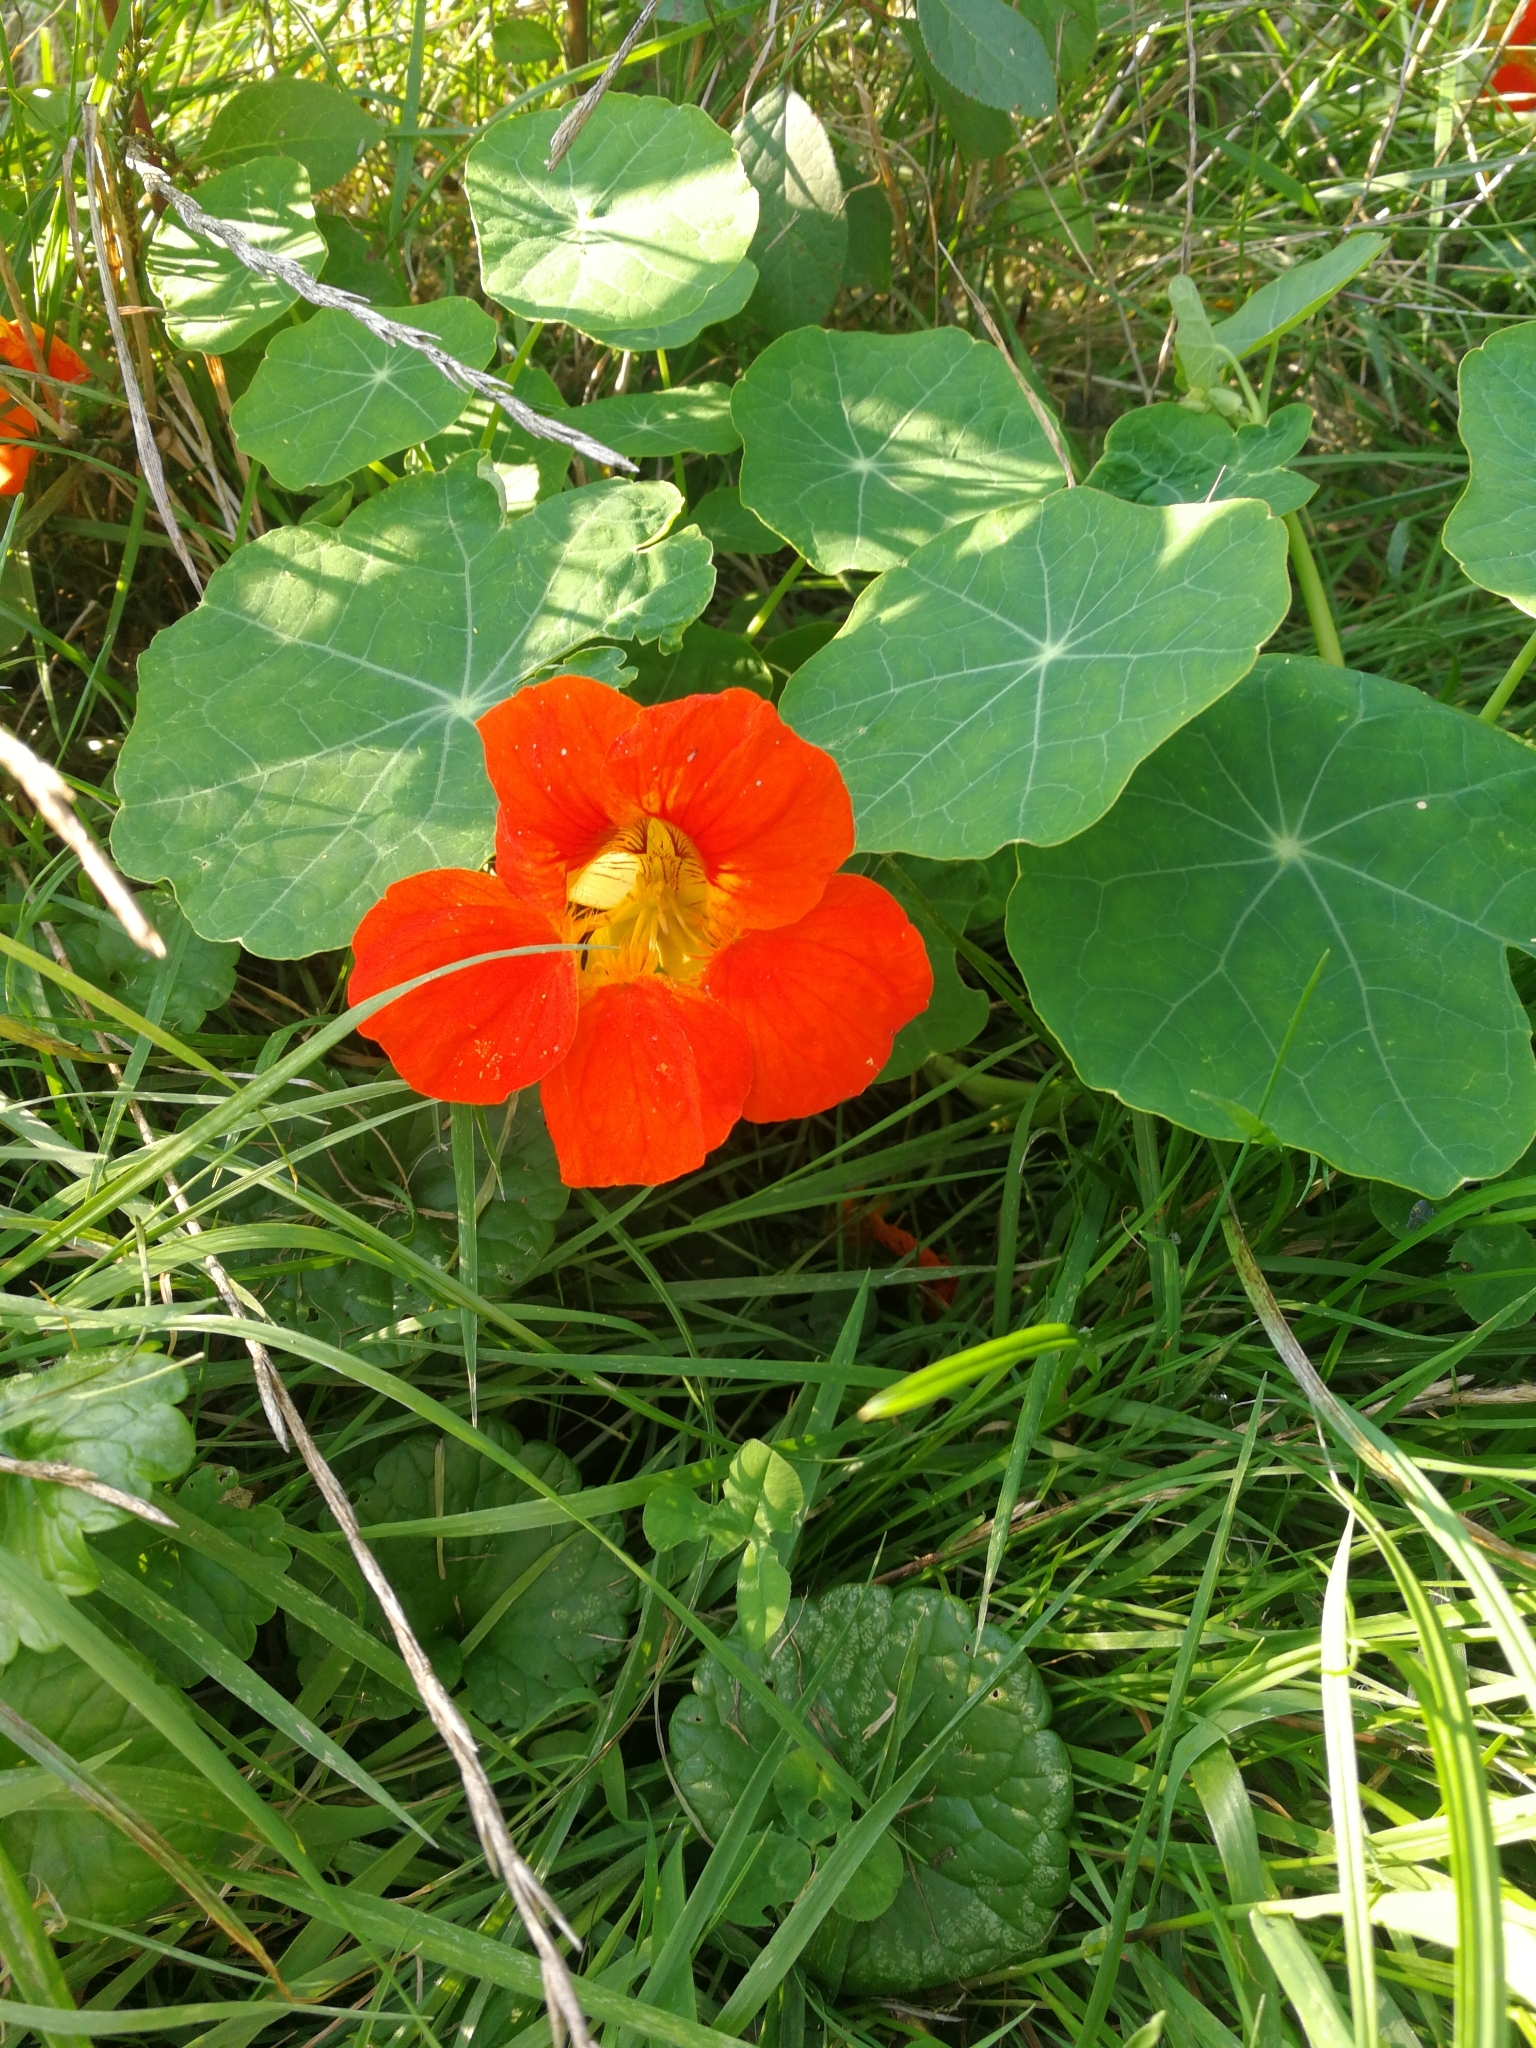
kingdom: Plantae
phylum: Tracheophyta
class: Magnoliopsida
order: Brassicales
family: Tropaeolaceae
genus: Tropaeolum
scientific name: Tropaeolum majus
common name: Nasturtium
